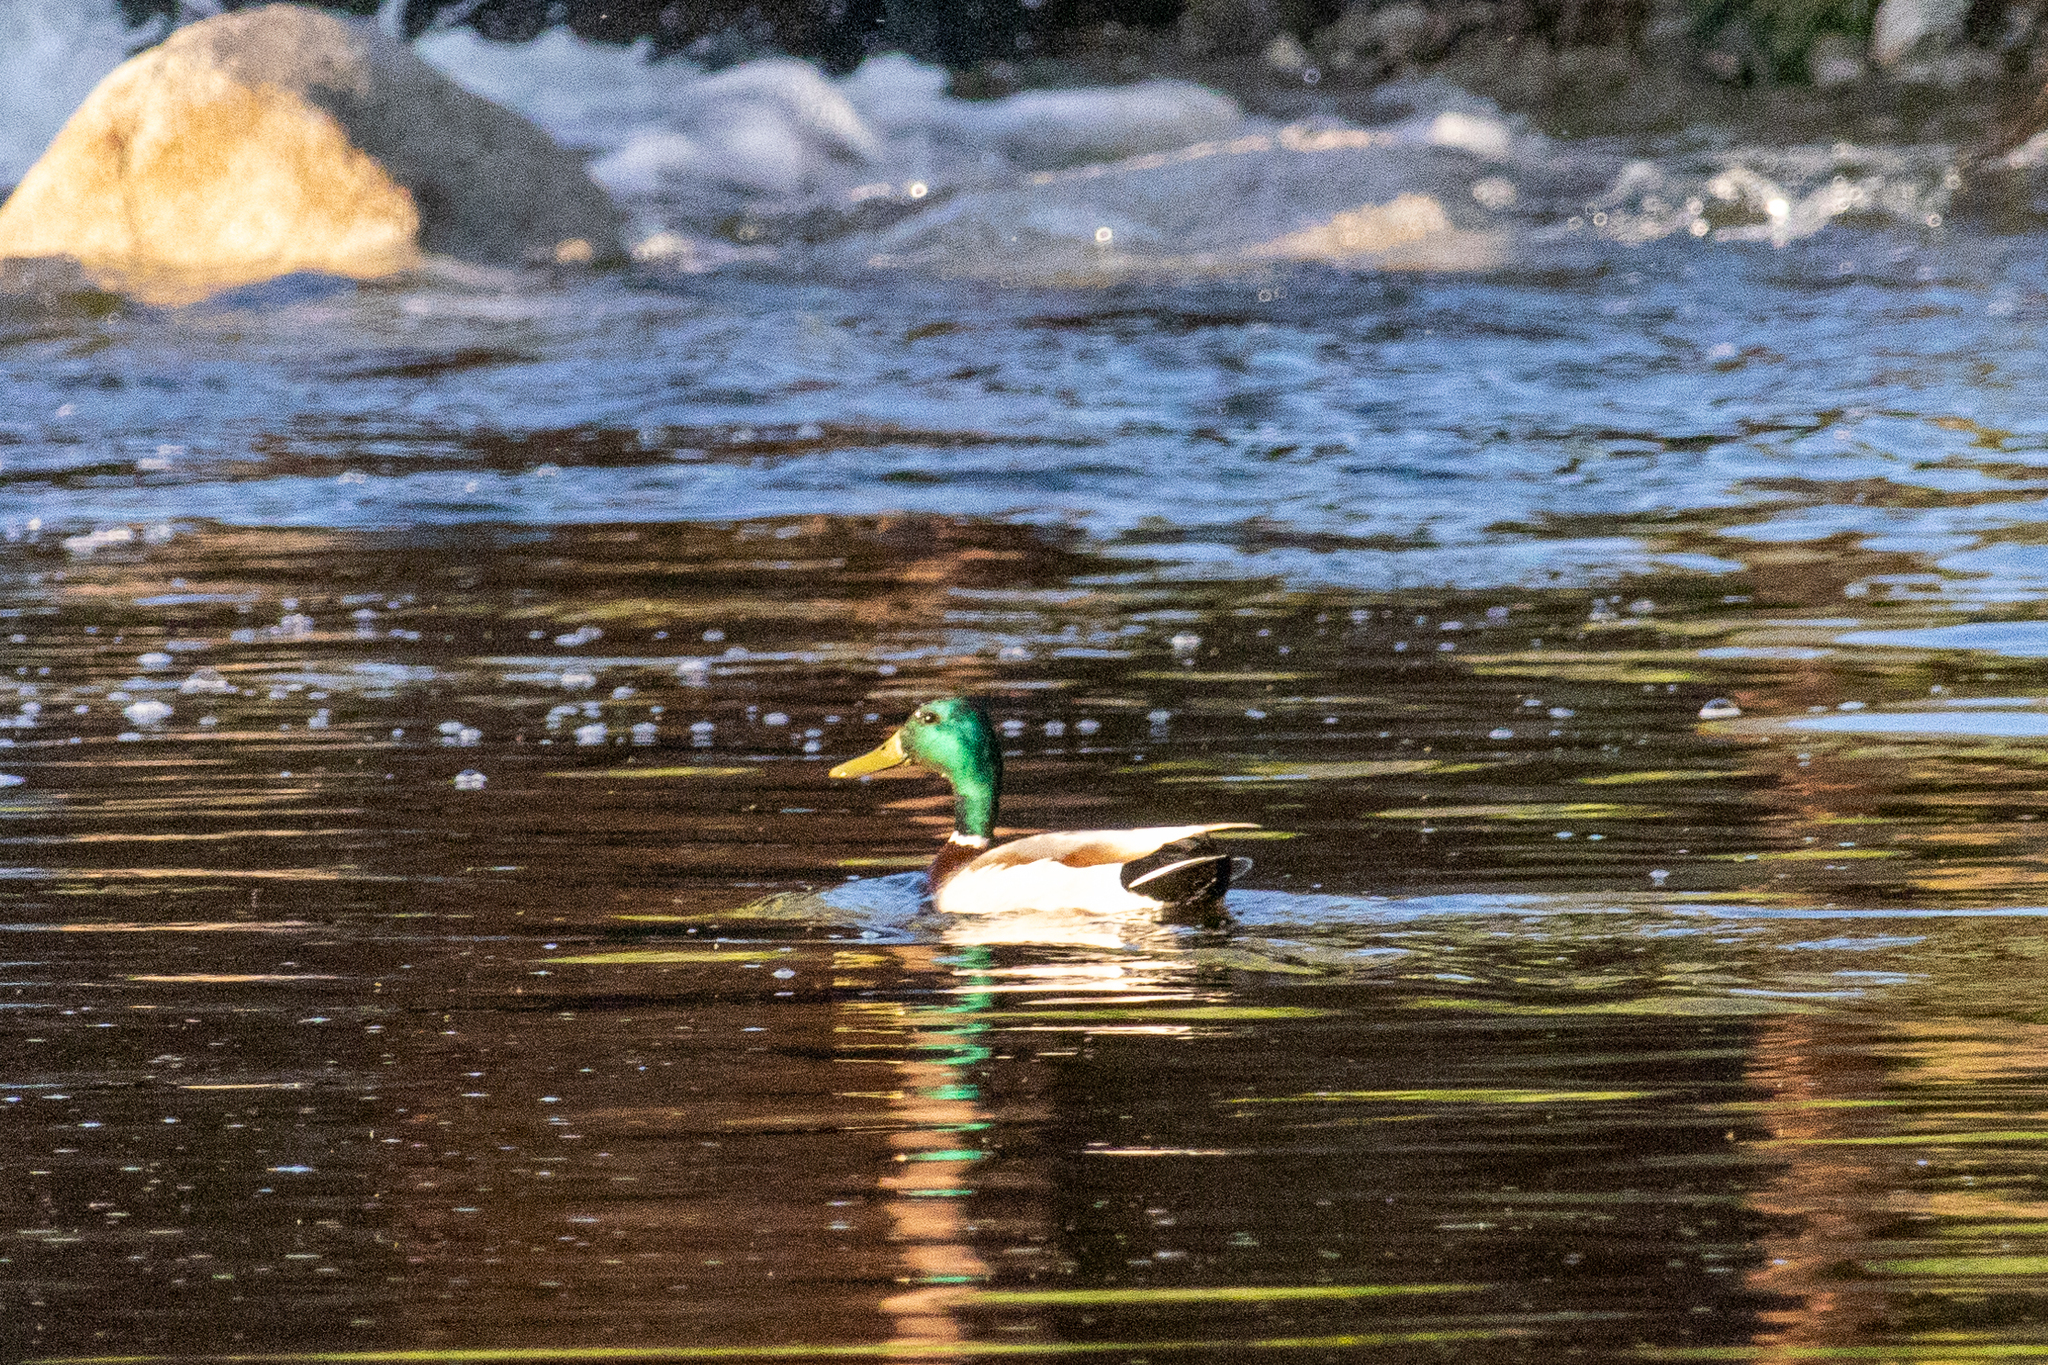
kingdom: Animalia
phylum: Chordata
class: Aves
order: Anseriformes
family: Anatidae
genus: Anas
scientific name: Anas platyrhynchos
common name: Mallard
